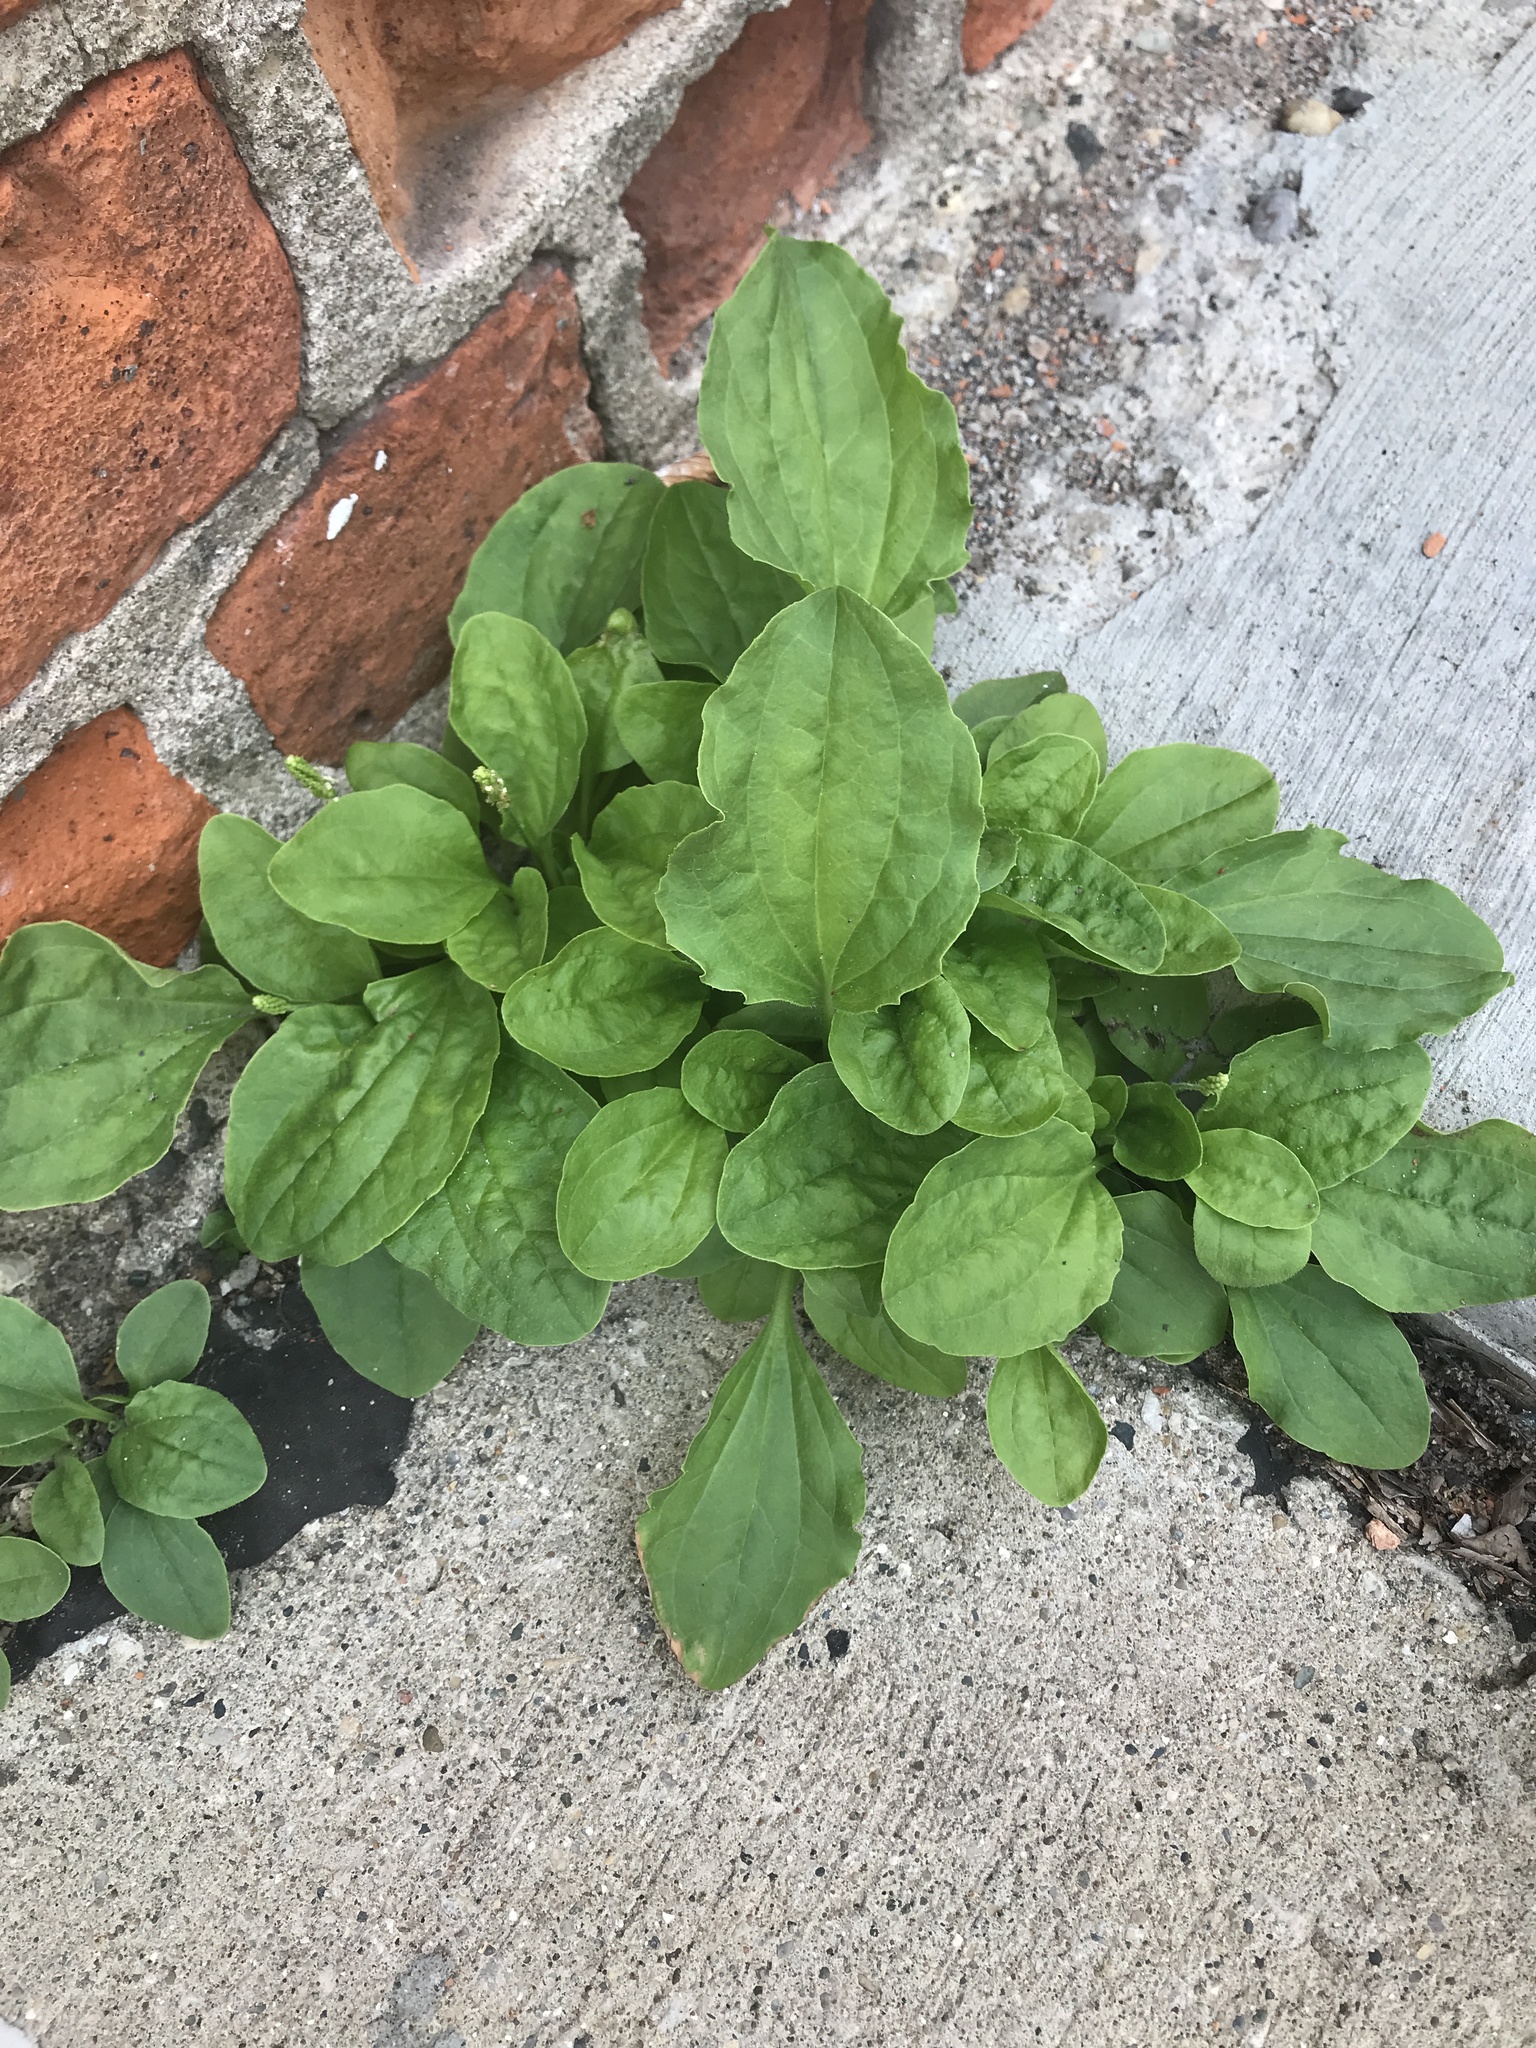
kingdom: Plantae
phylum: Tracheophyta
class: Magnoliopsida
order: Lamiales
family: Plantaginaceae
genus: Plantago
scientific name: Plantago major
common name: Common plantain
